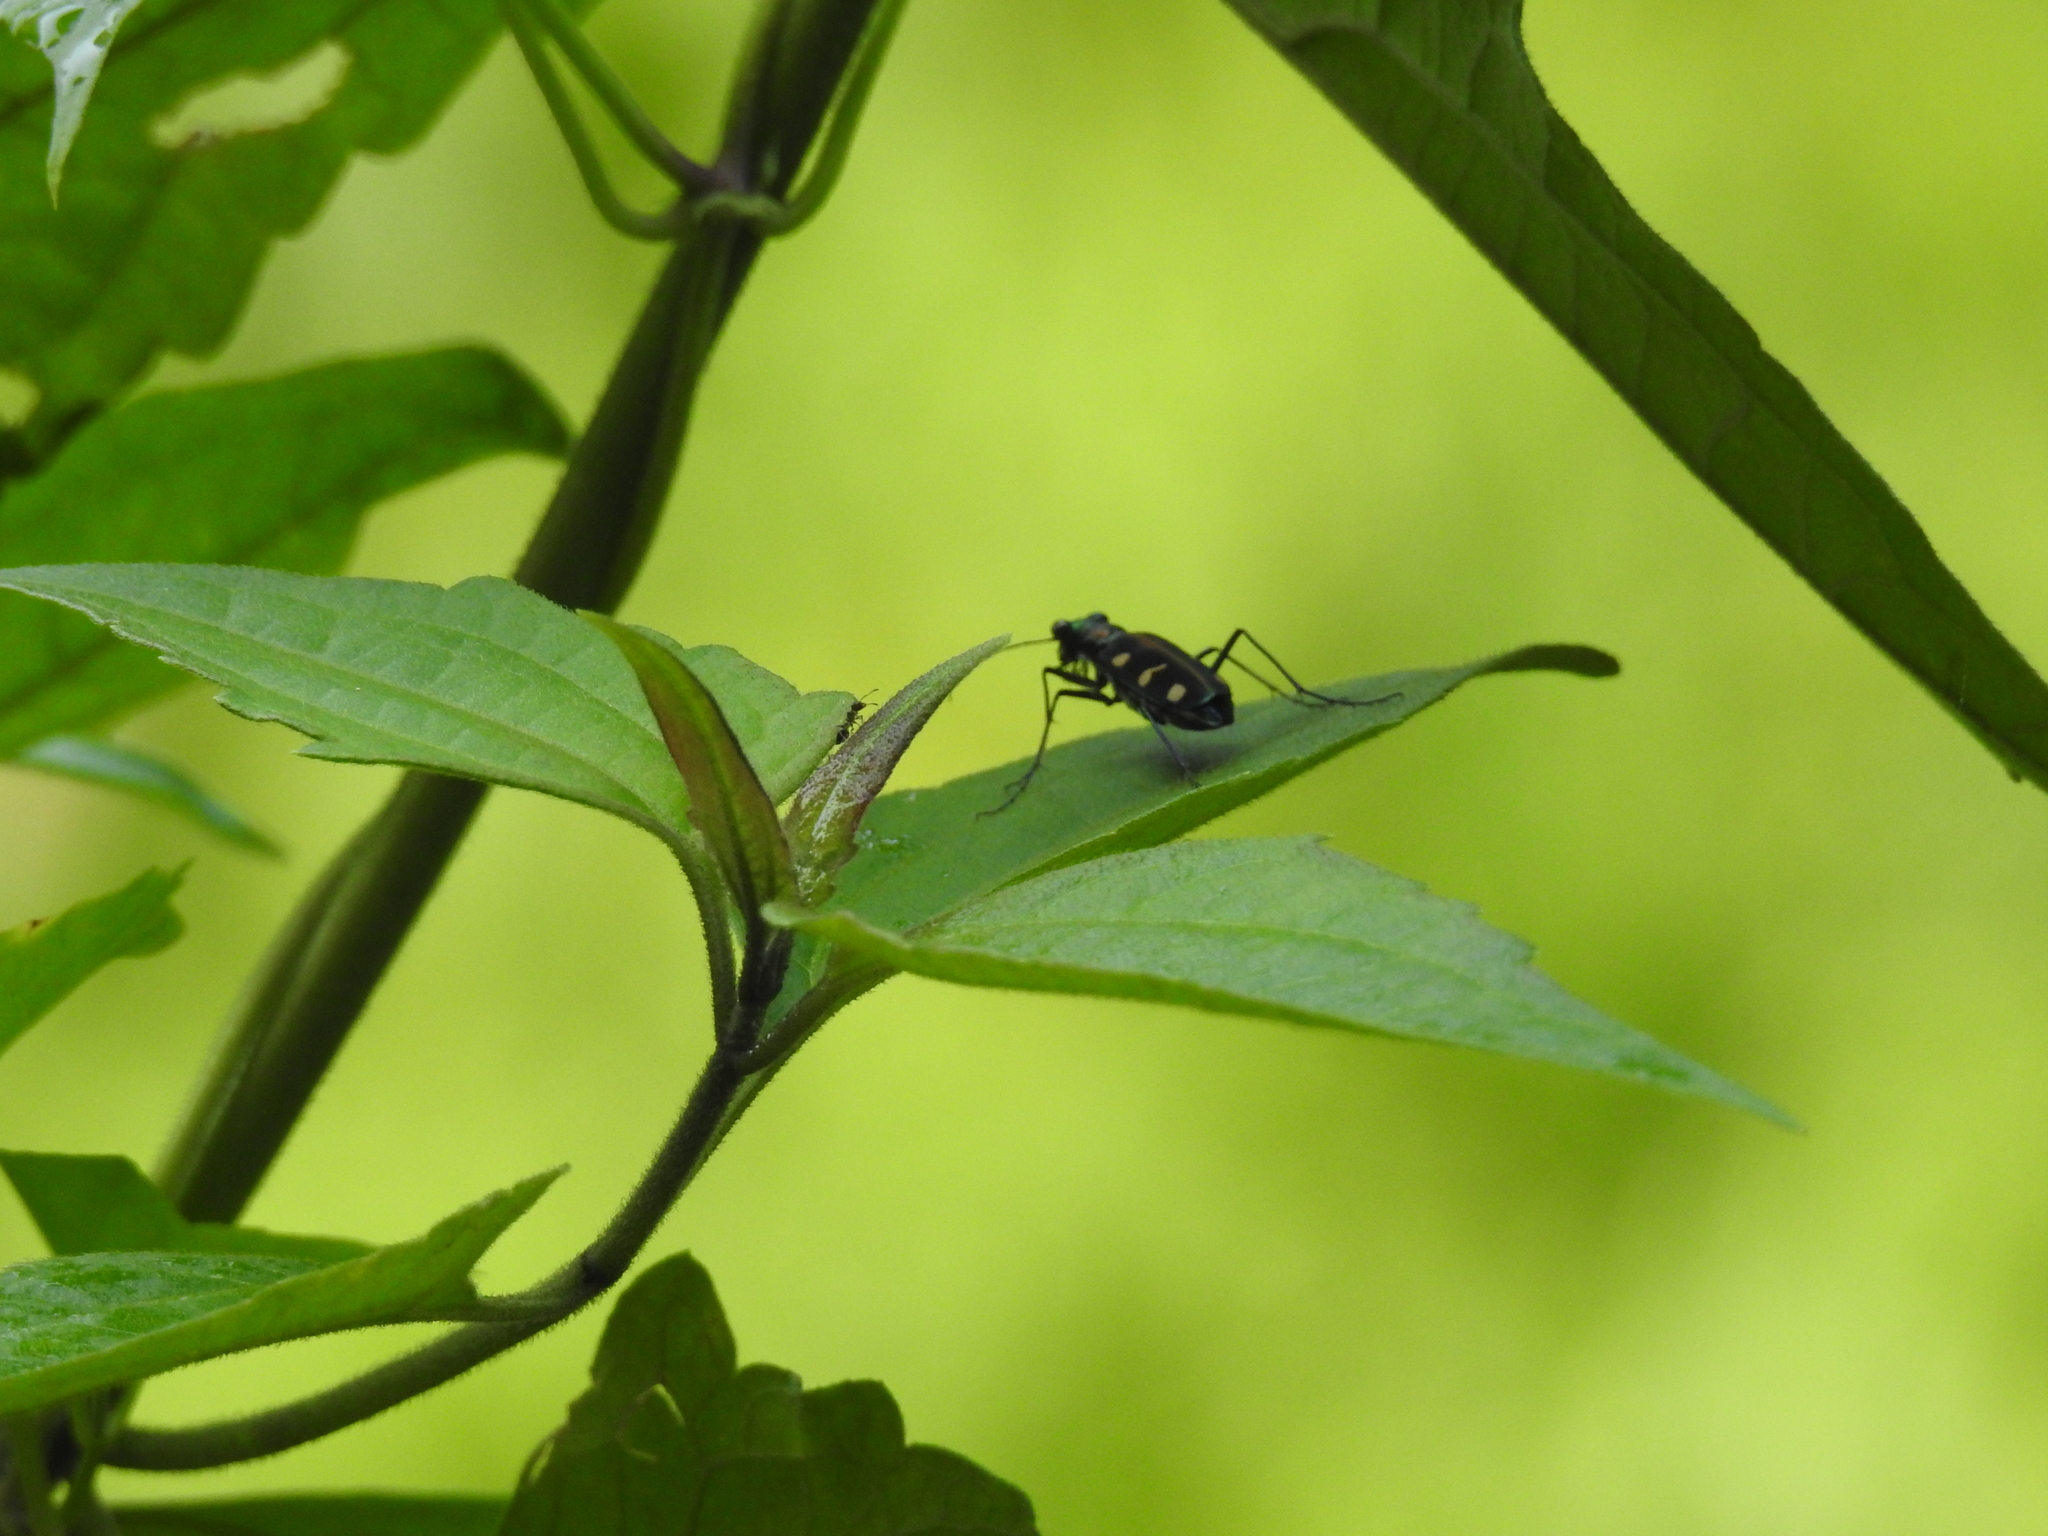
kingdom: Animalia
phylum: Arthropoda
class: Insecta
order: Coleoptera
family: Carabidae
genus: Cicindela
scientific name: Cicindela virgula
